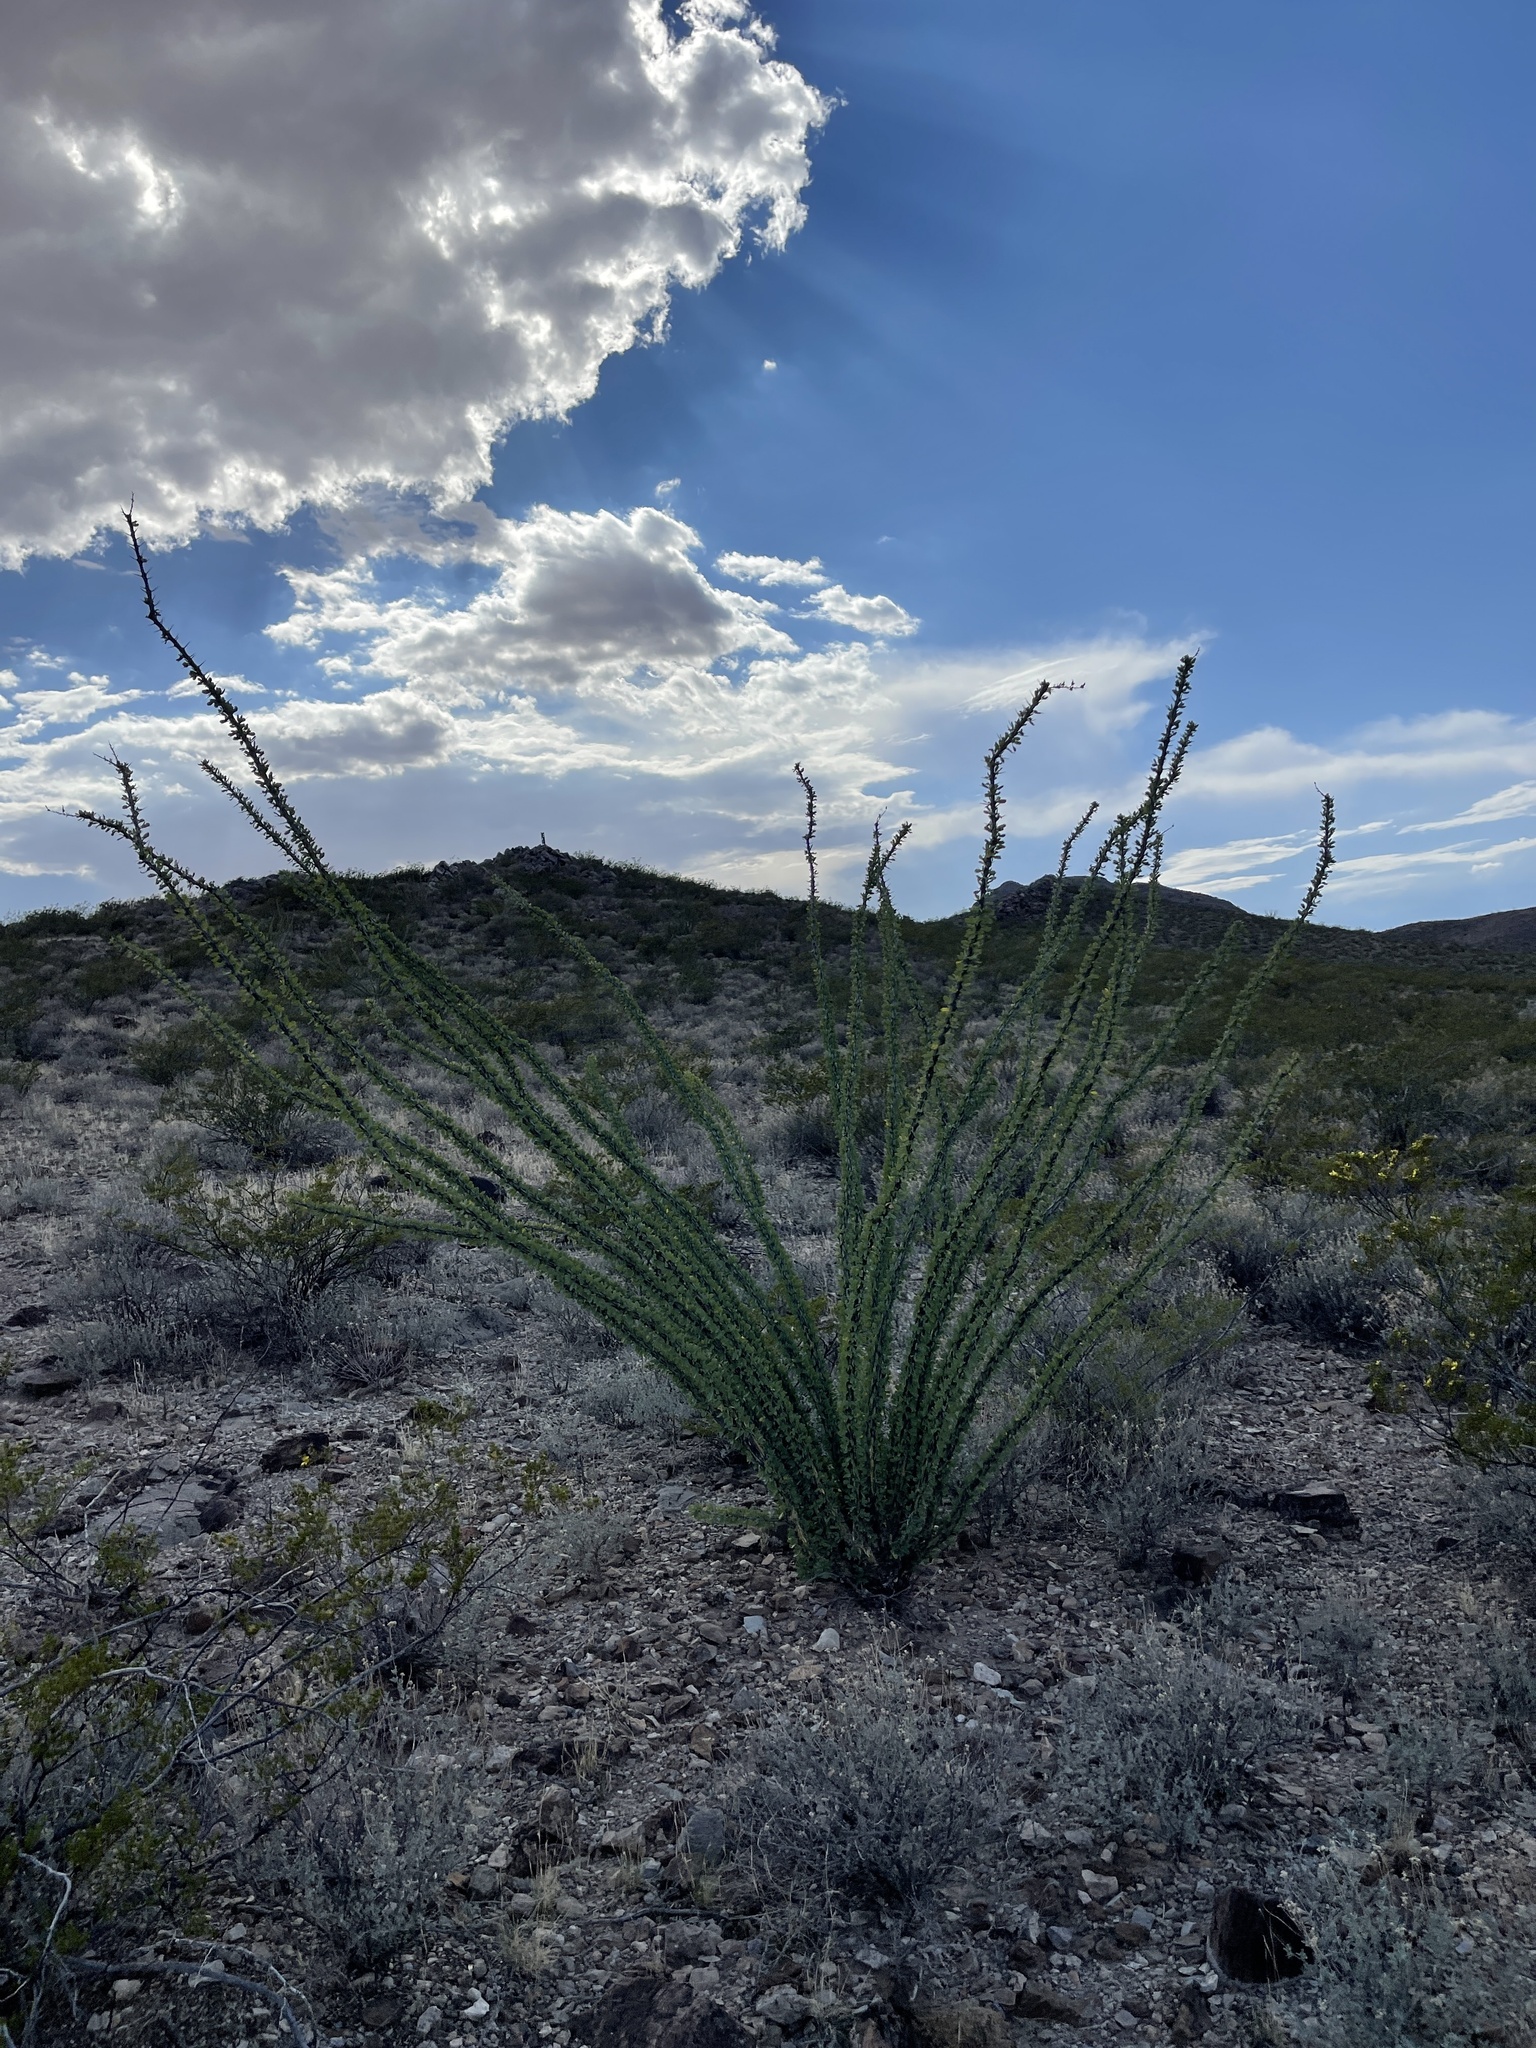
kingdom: Plantae
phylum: Tracheophyta
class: Magnoliopsida
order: Ericales
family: Fouquieriaceae
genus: Fouquieria
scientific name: Fouquieria splendens
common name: Vine-cactus
